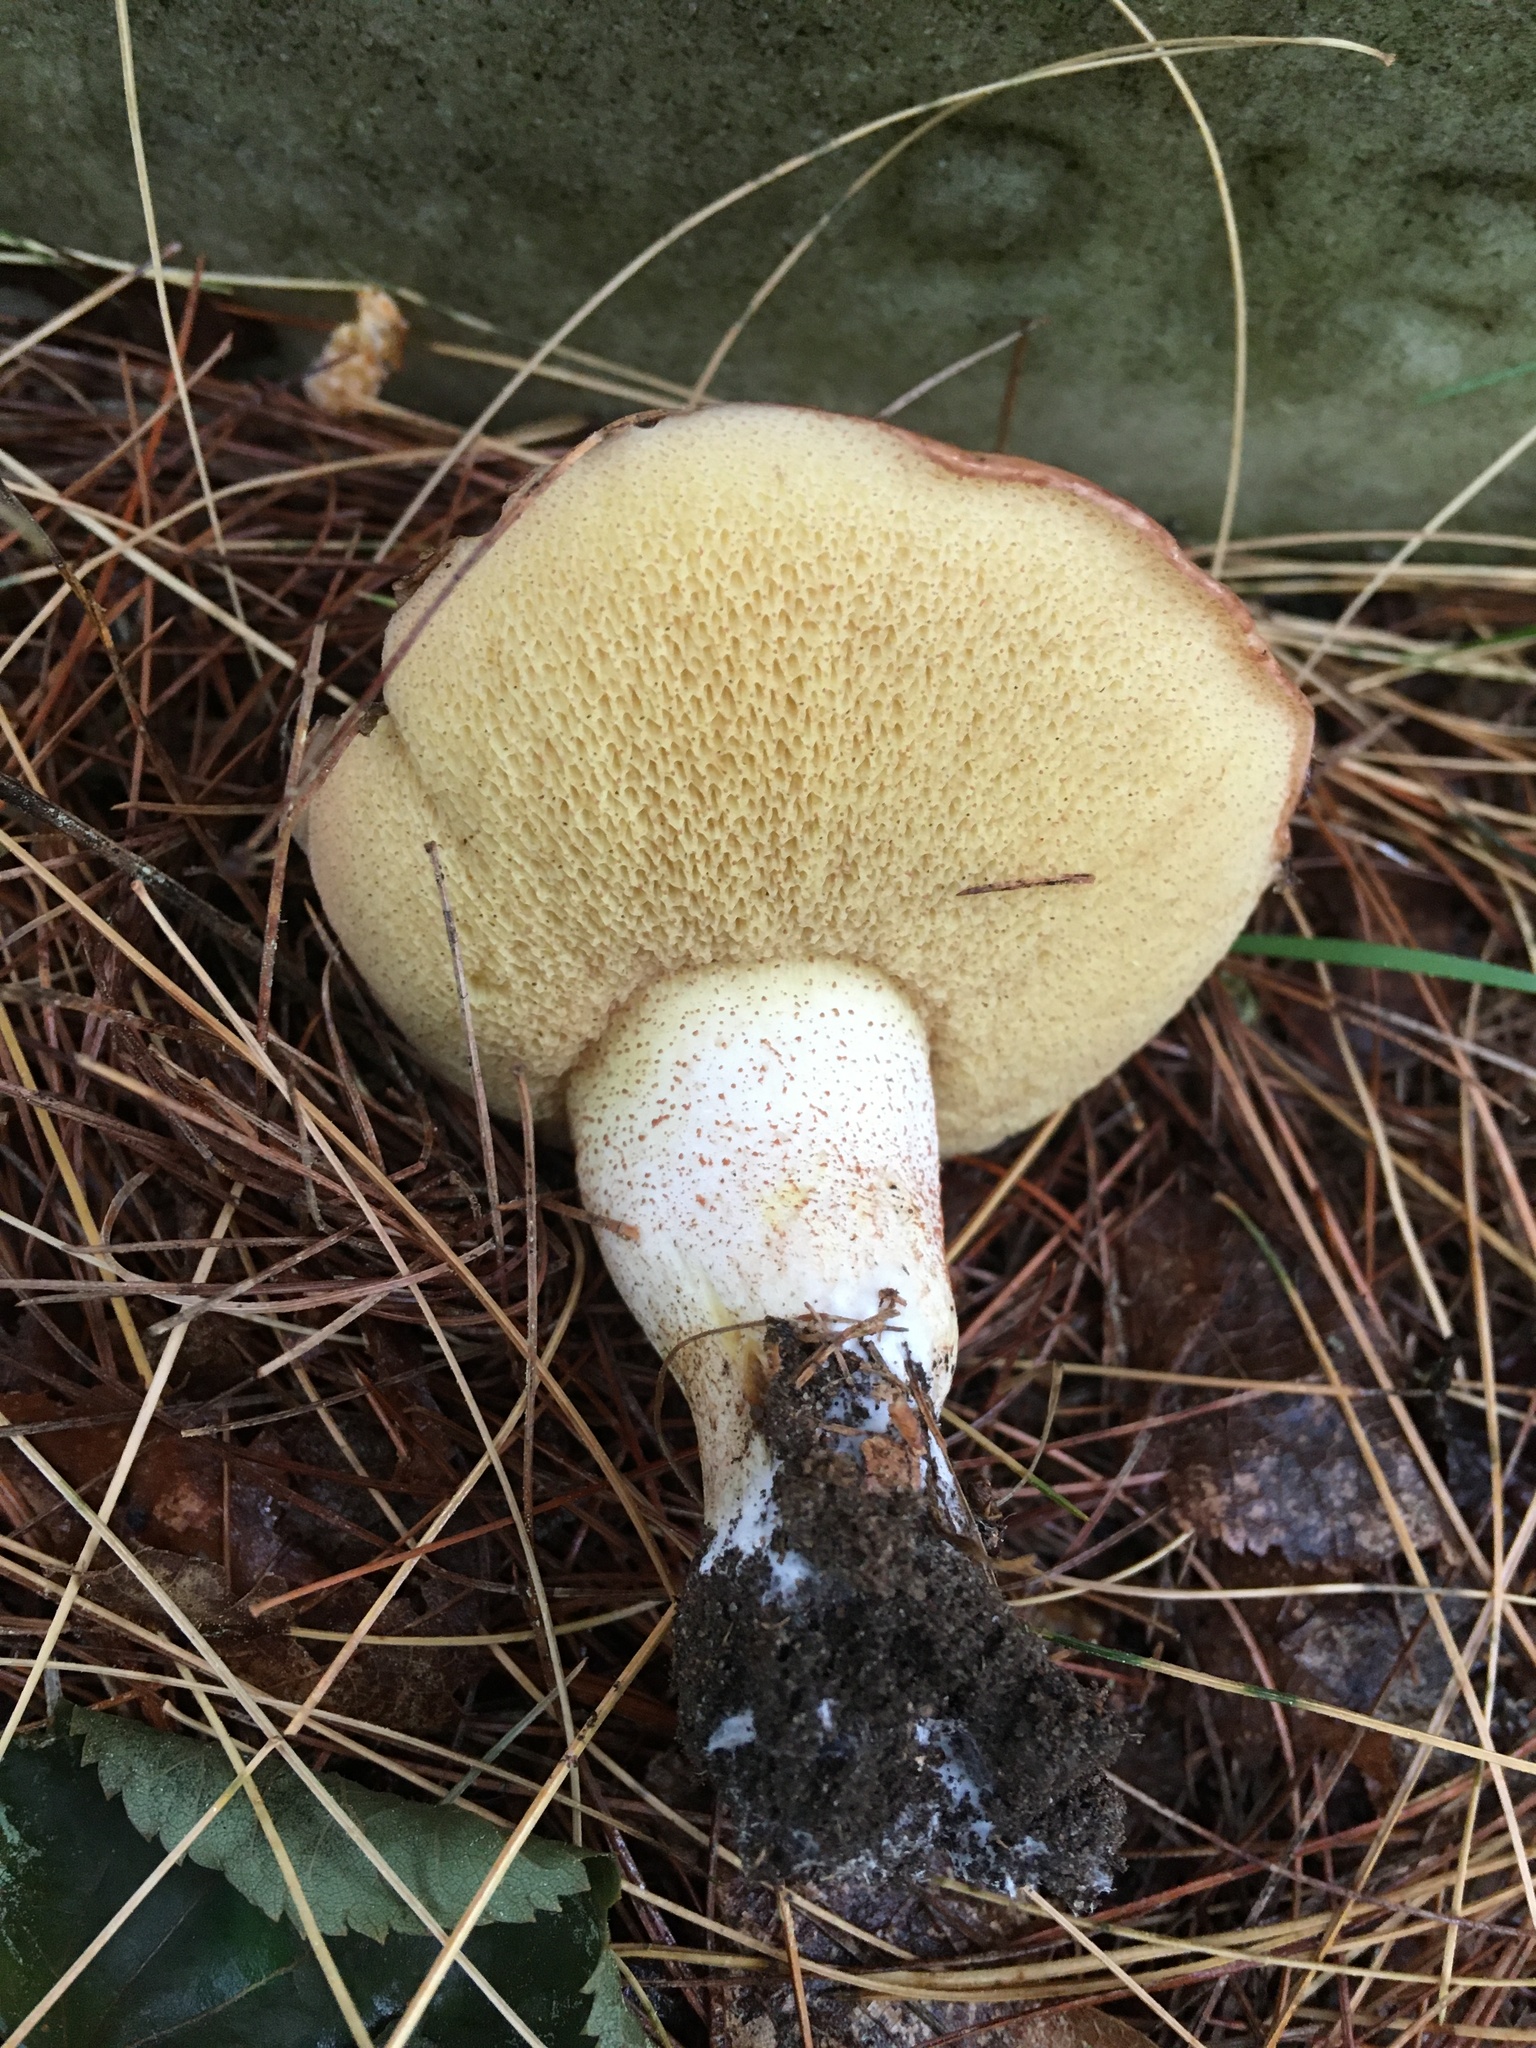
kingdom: Fungi
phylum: Basidiomycota
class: Agaricomycetes
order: Boletales
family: Suillaceae
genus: Suillus
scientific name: Suillus granulatus
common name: Weeping bolete
